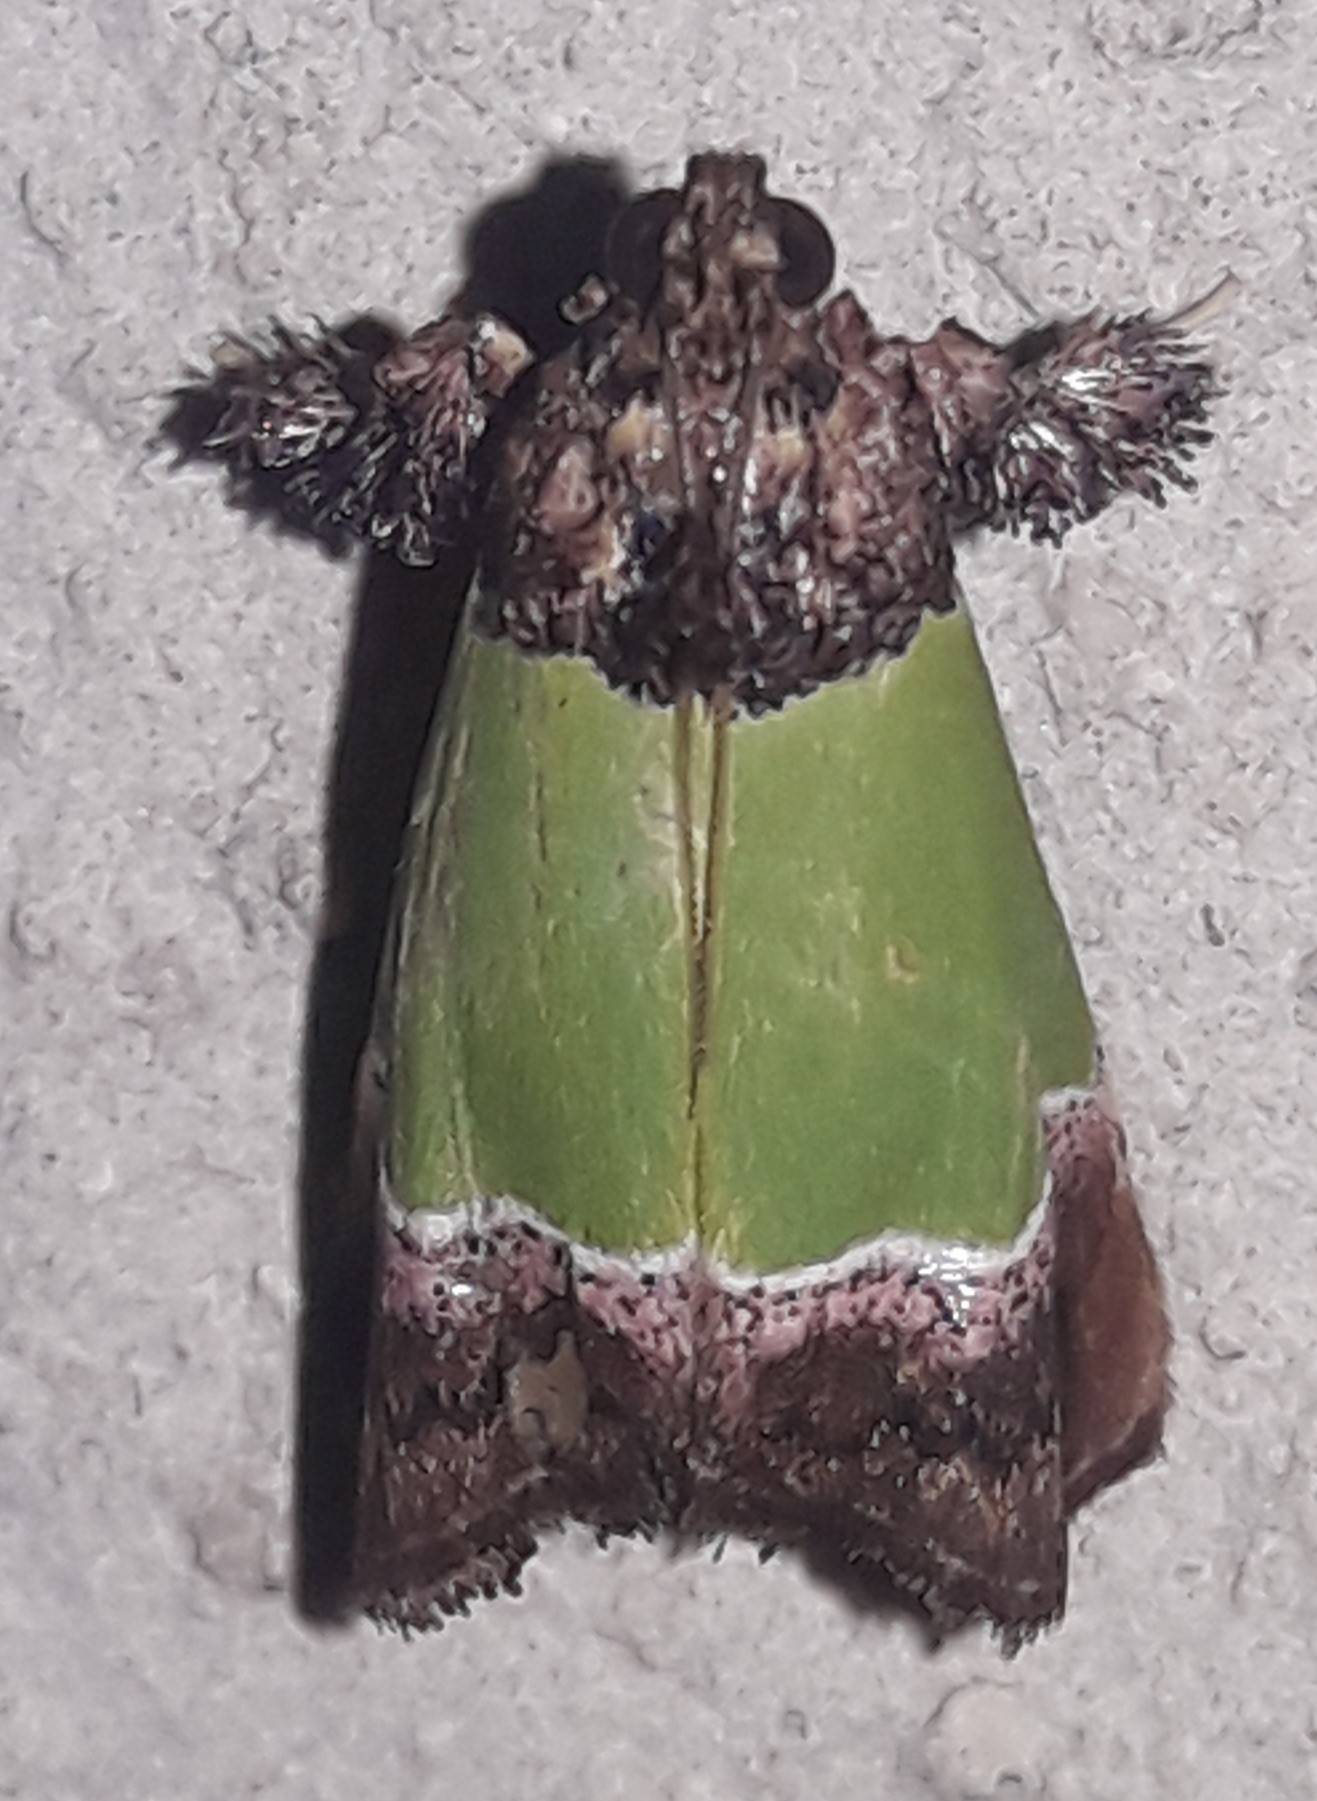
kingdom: Animalia
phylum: Arthropoda
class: Insecta
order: Lepidoptera
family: Pyralidae
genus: Epidelia
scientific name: Epidelia damia
